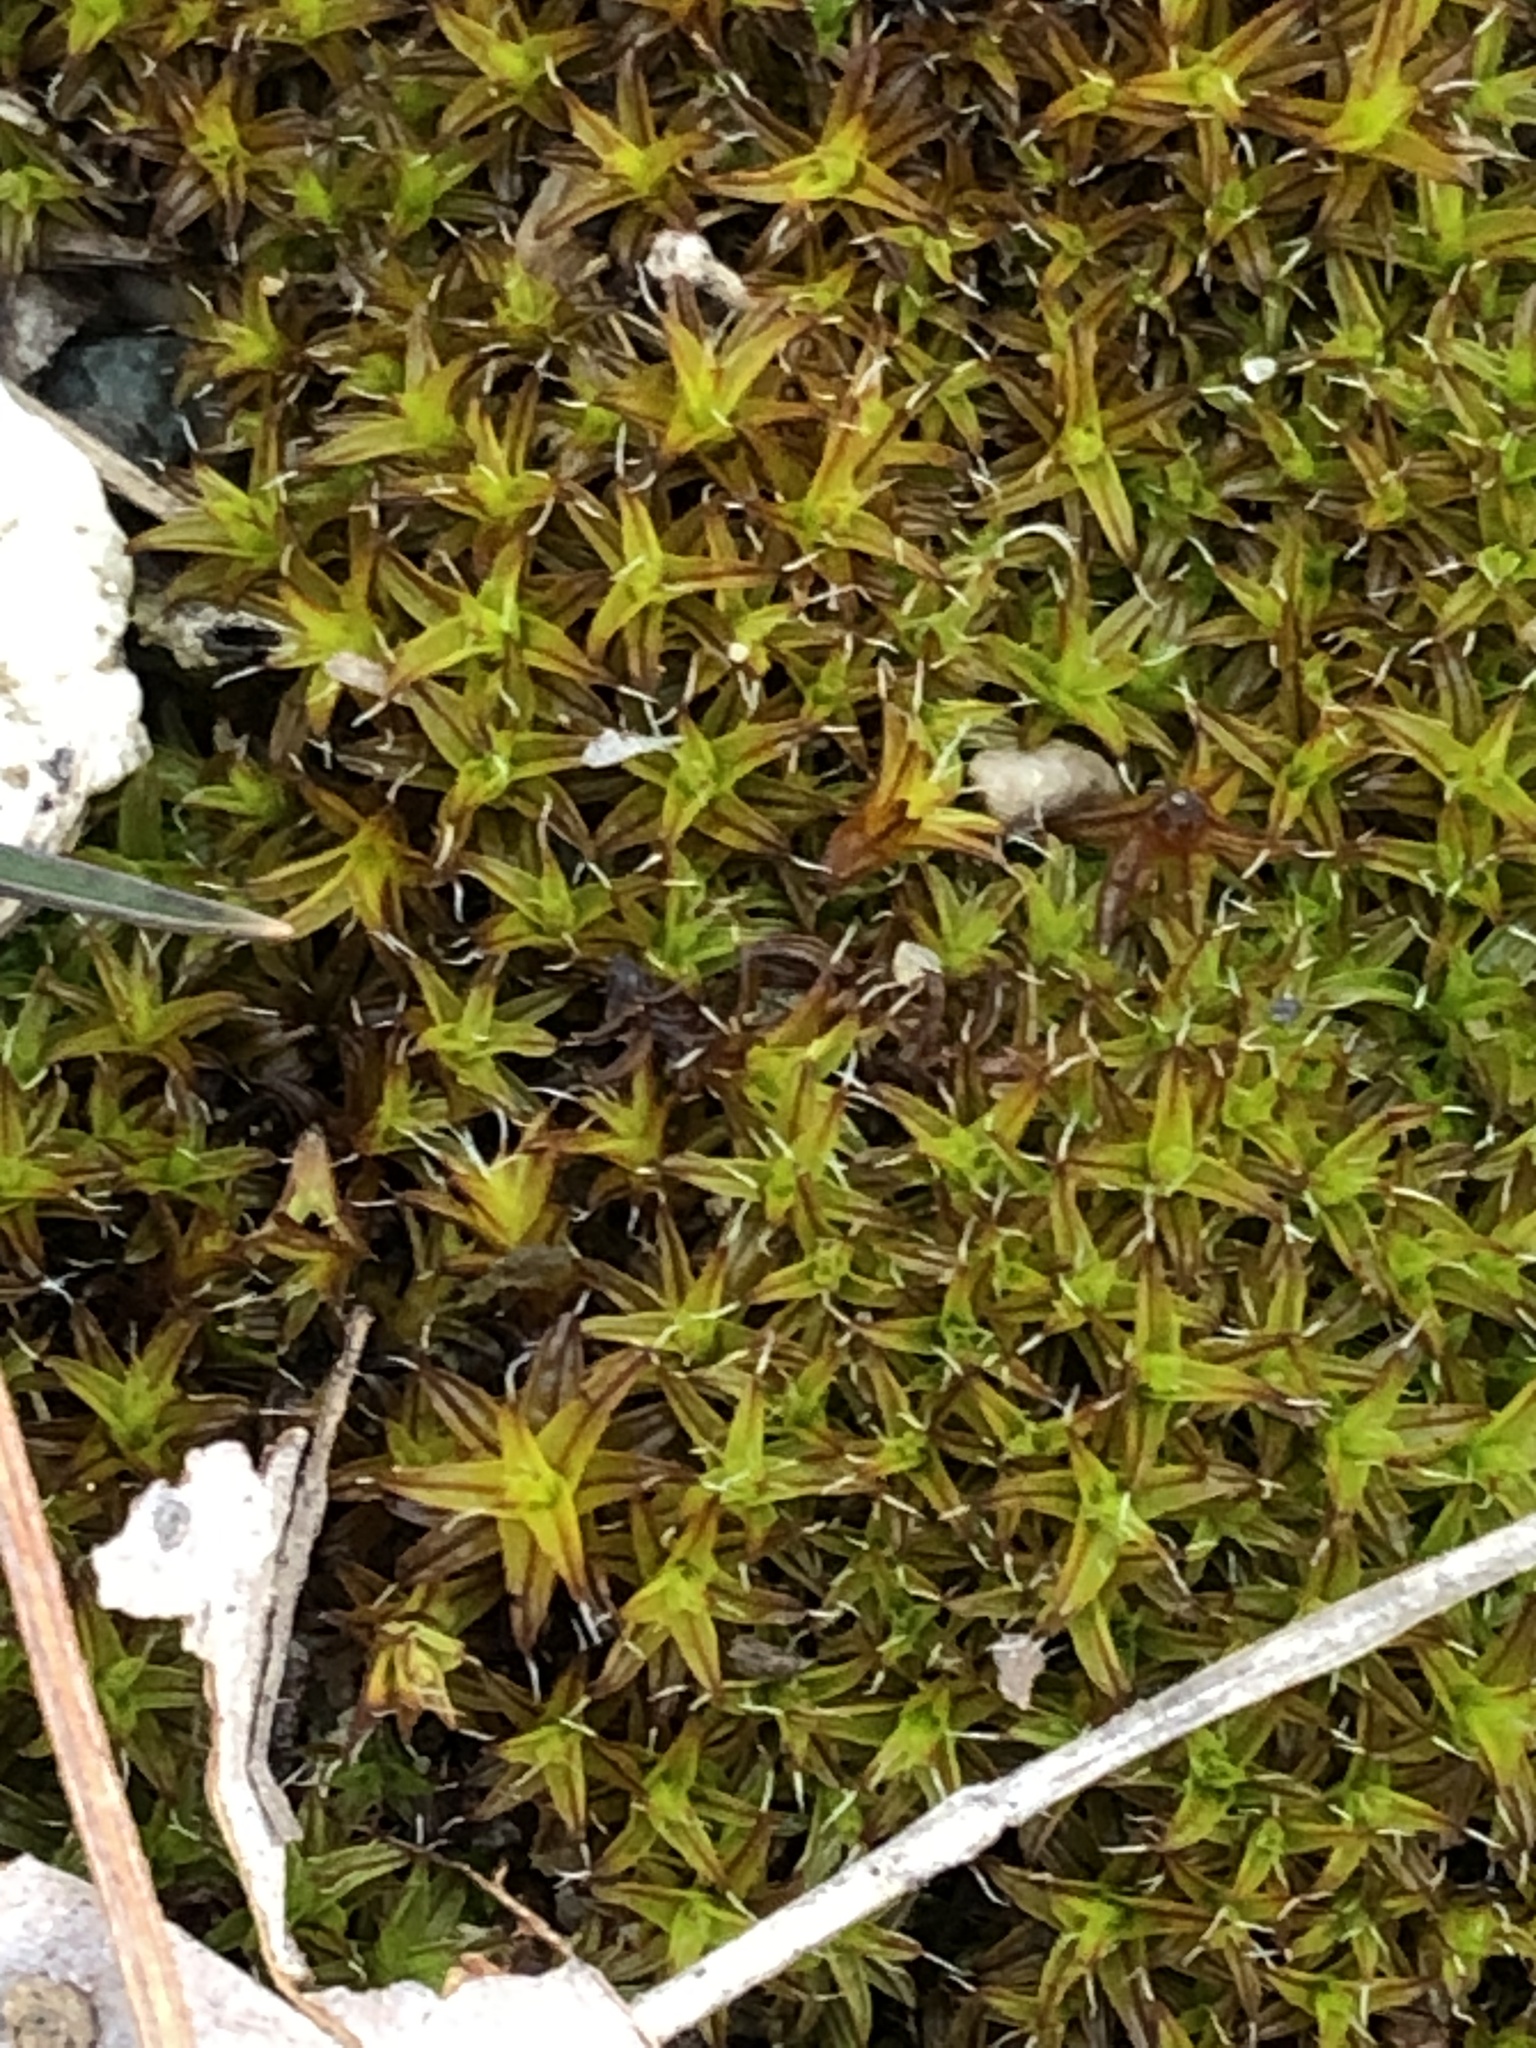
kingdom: Plantae
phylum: Bryophyta
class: Bryopsida
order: Pottiales
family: Pottiaceae
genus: Syntrichia
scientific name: Syntrichia ruralis
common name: Sidewalk screw moss
